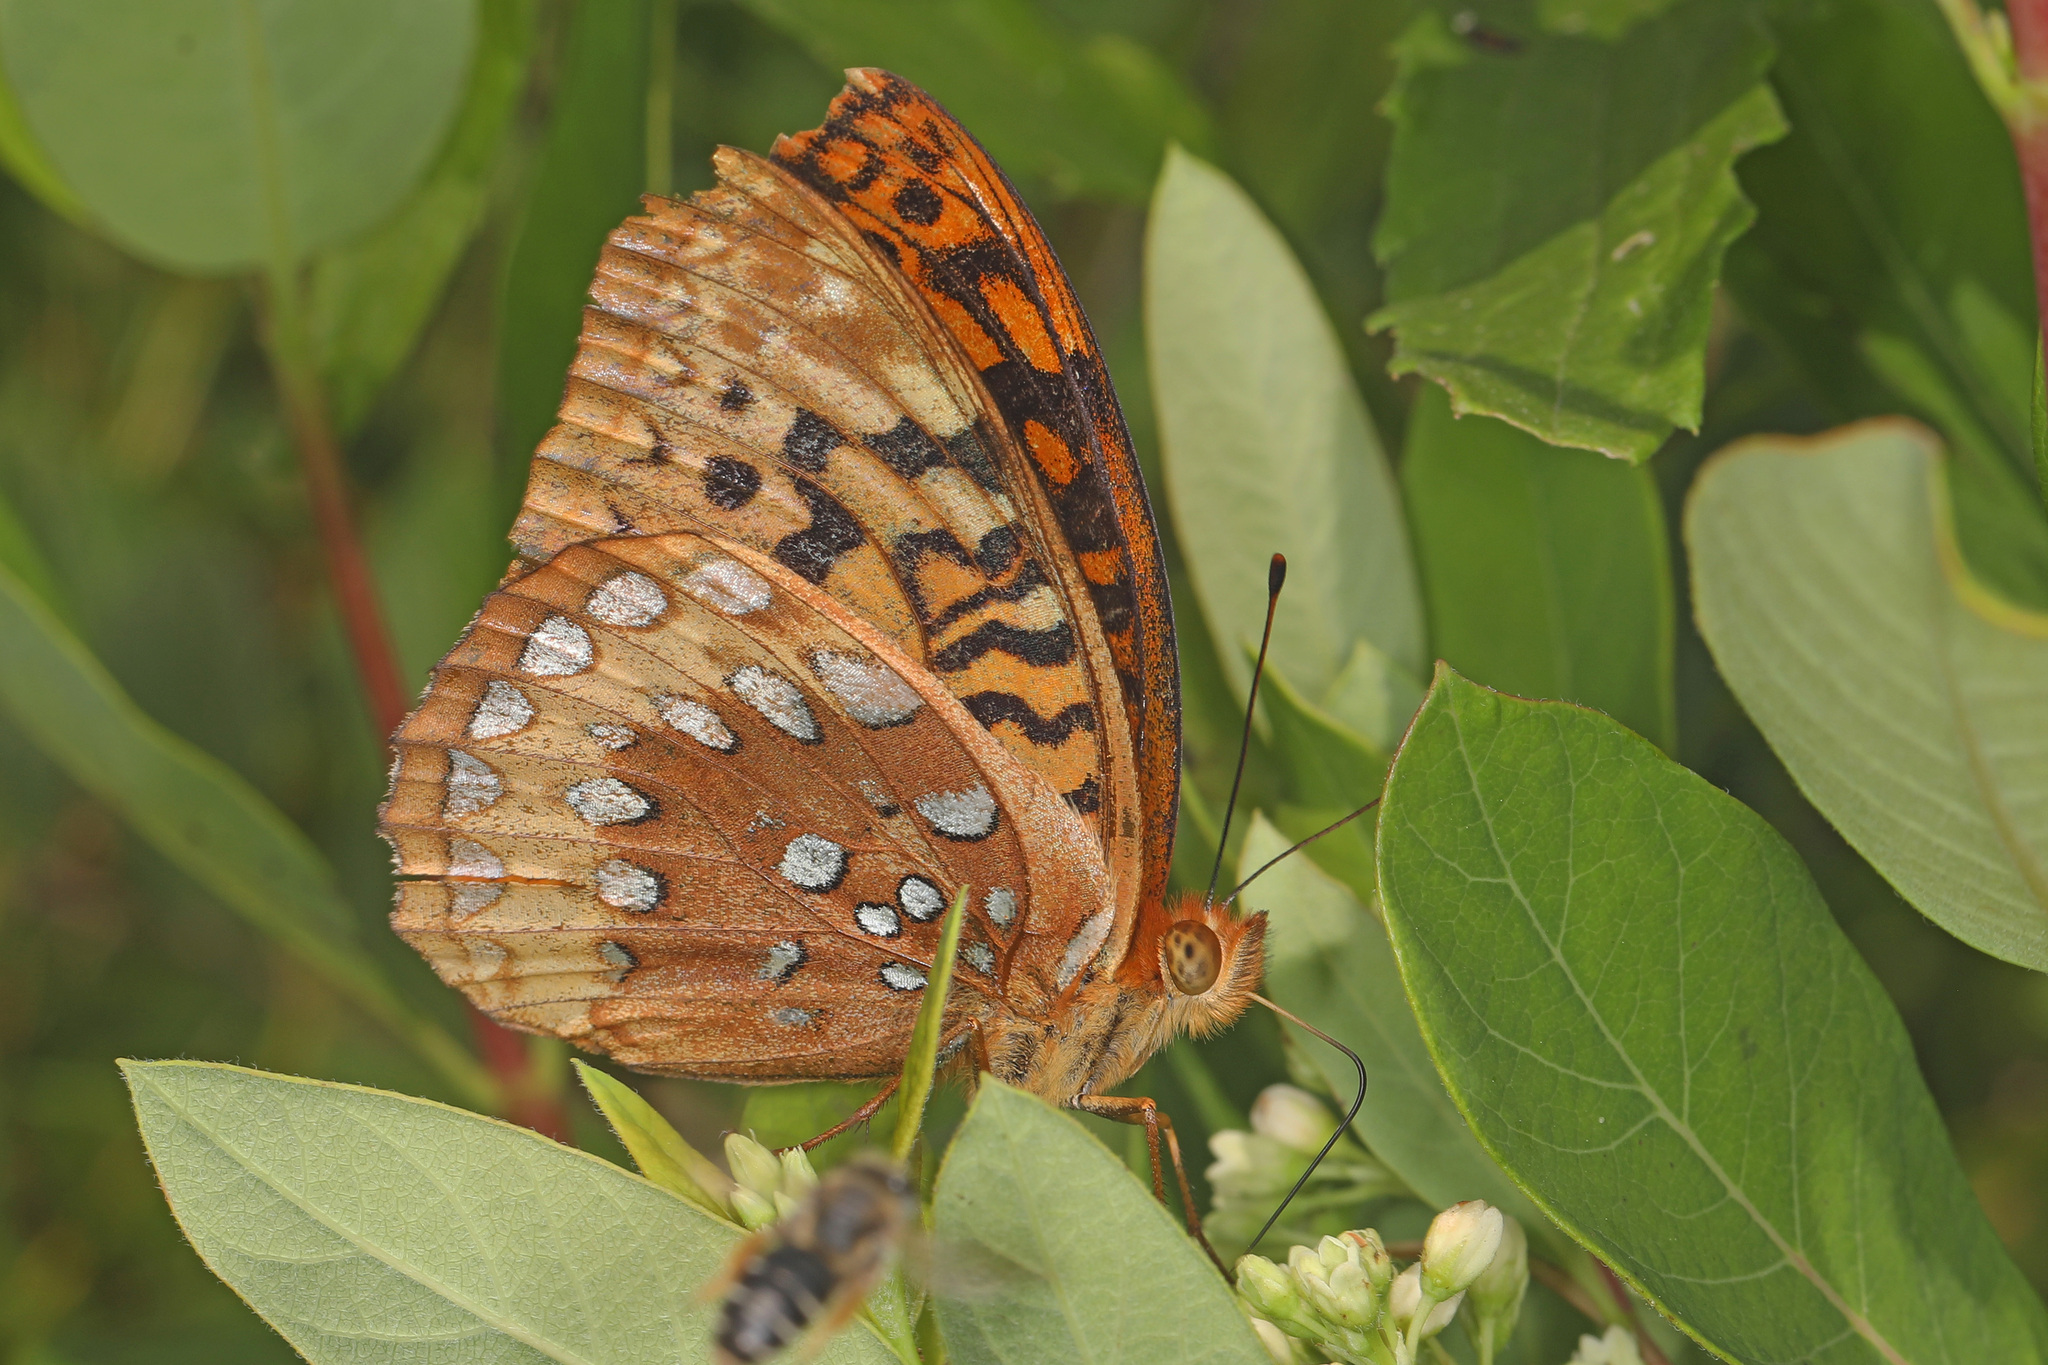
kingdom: Animalia
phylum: Arthropoda
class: Insecta
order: Lepidoptera
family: Nymphalidae
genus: Speyeria
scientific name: Speyeria cybele
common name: Great spangled fritillary
